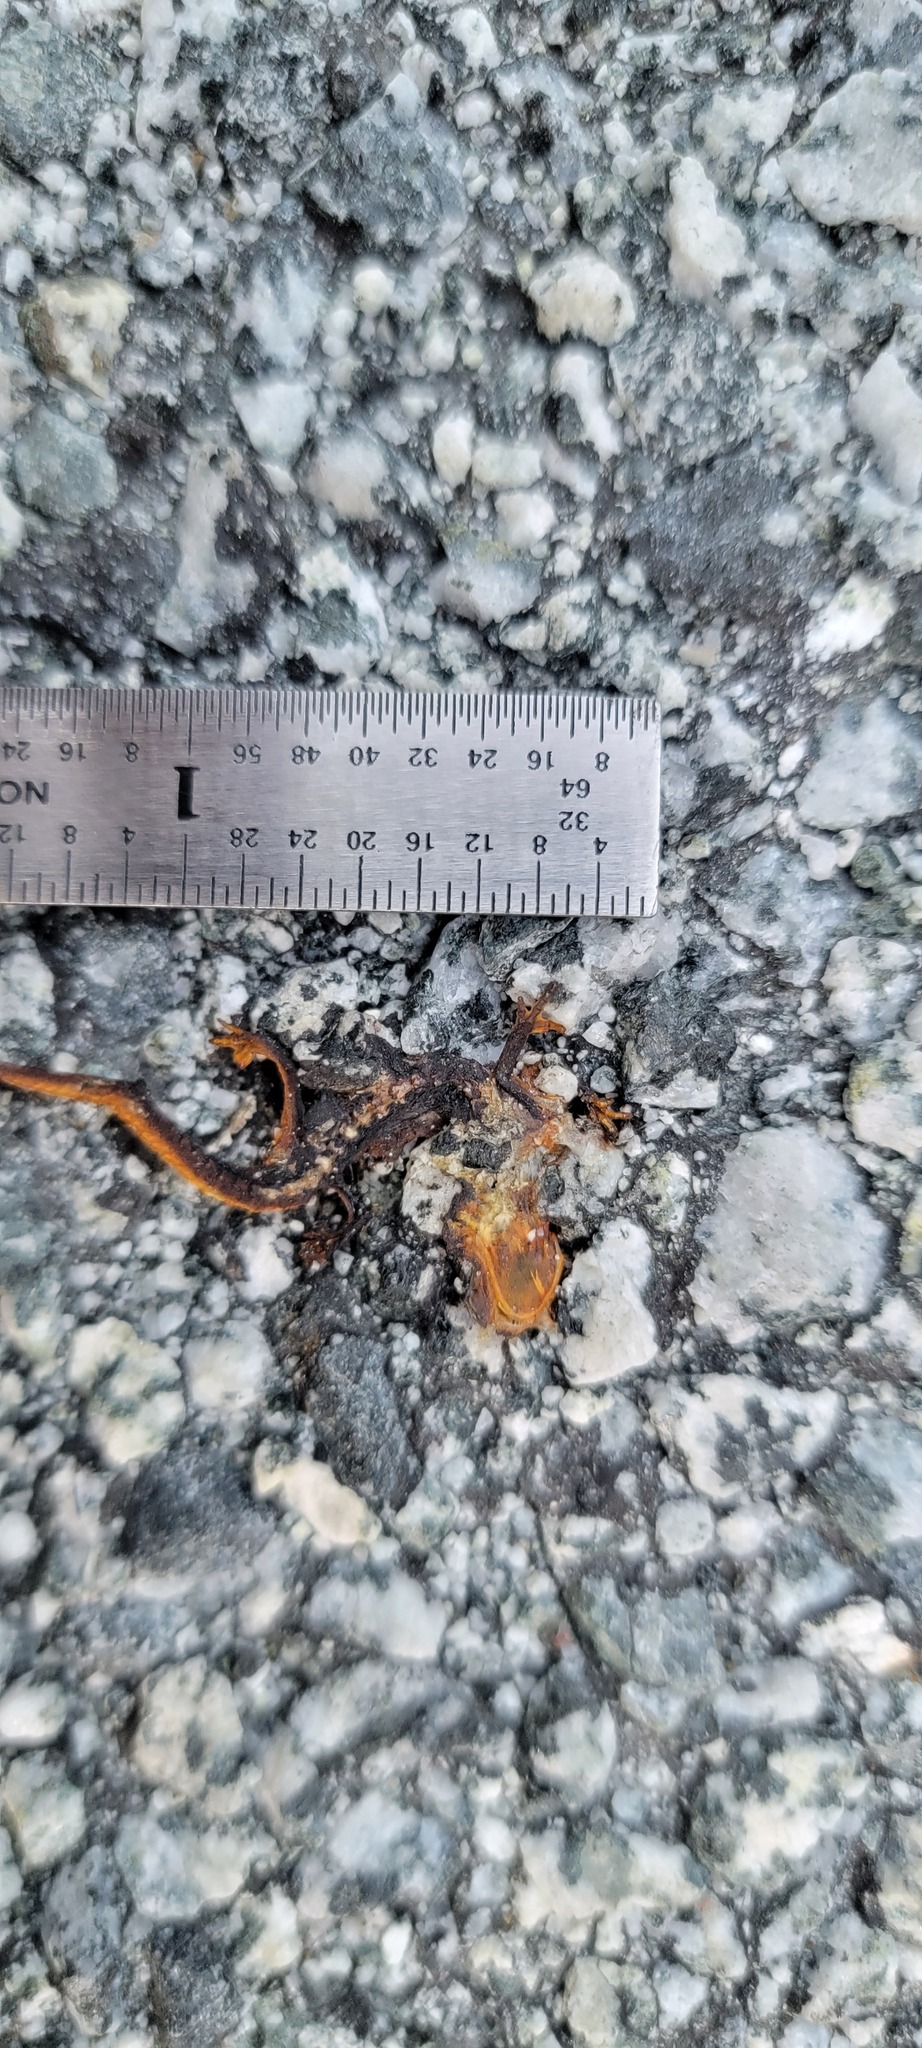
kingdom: Animalia
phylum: Chordata
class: Amphibia
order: Caudata
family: Salamandridae
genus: Taricha
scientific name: Taricha
